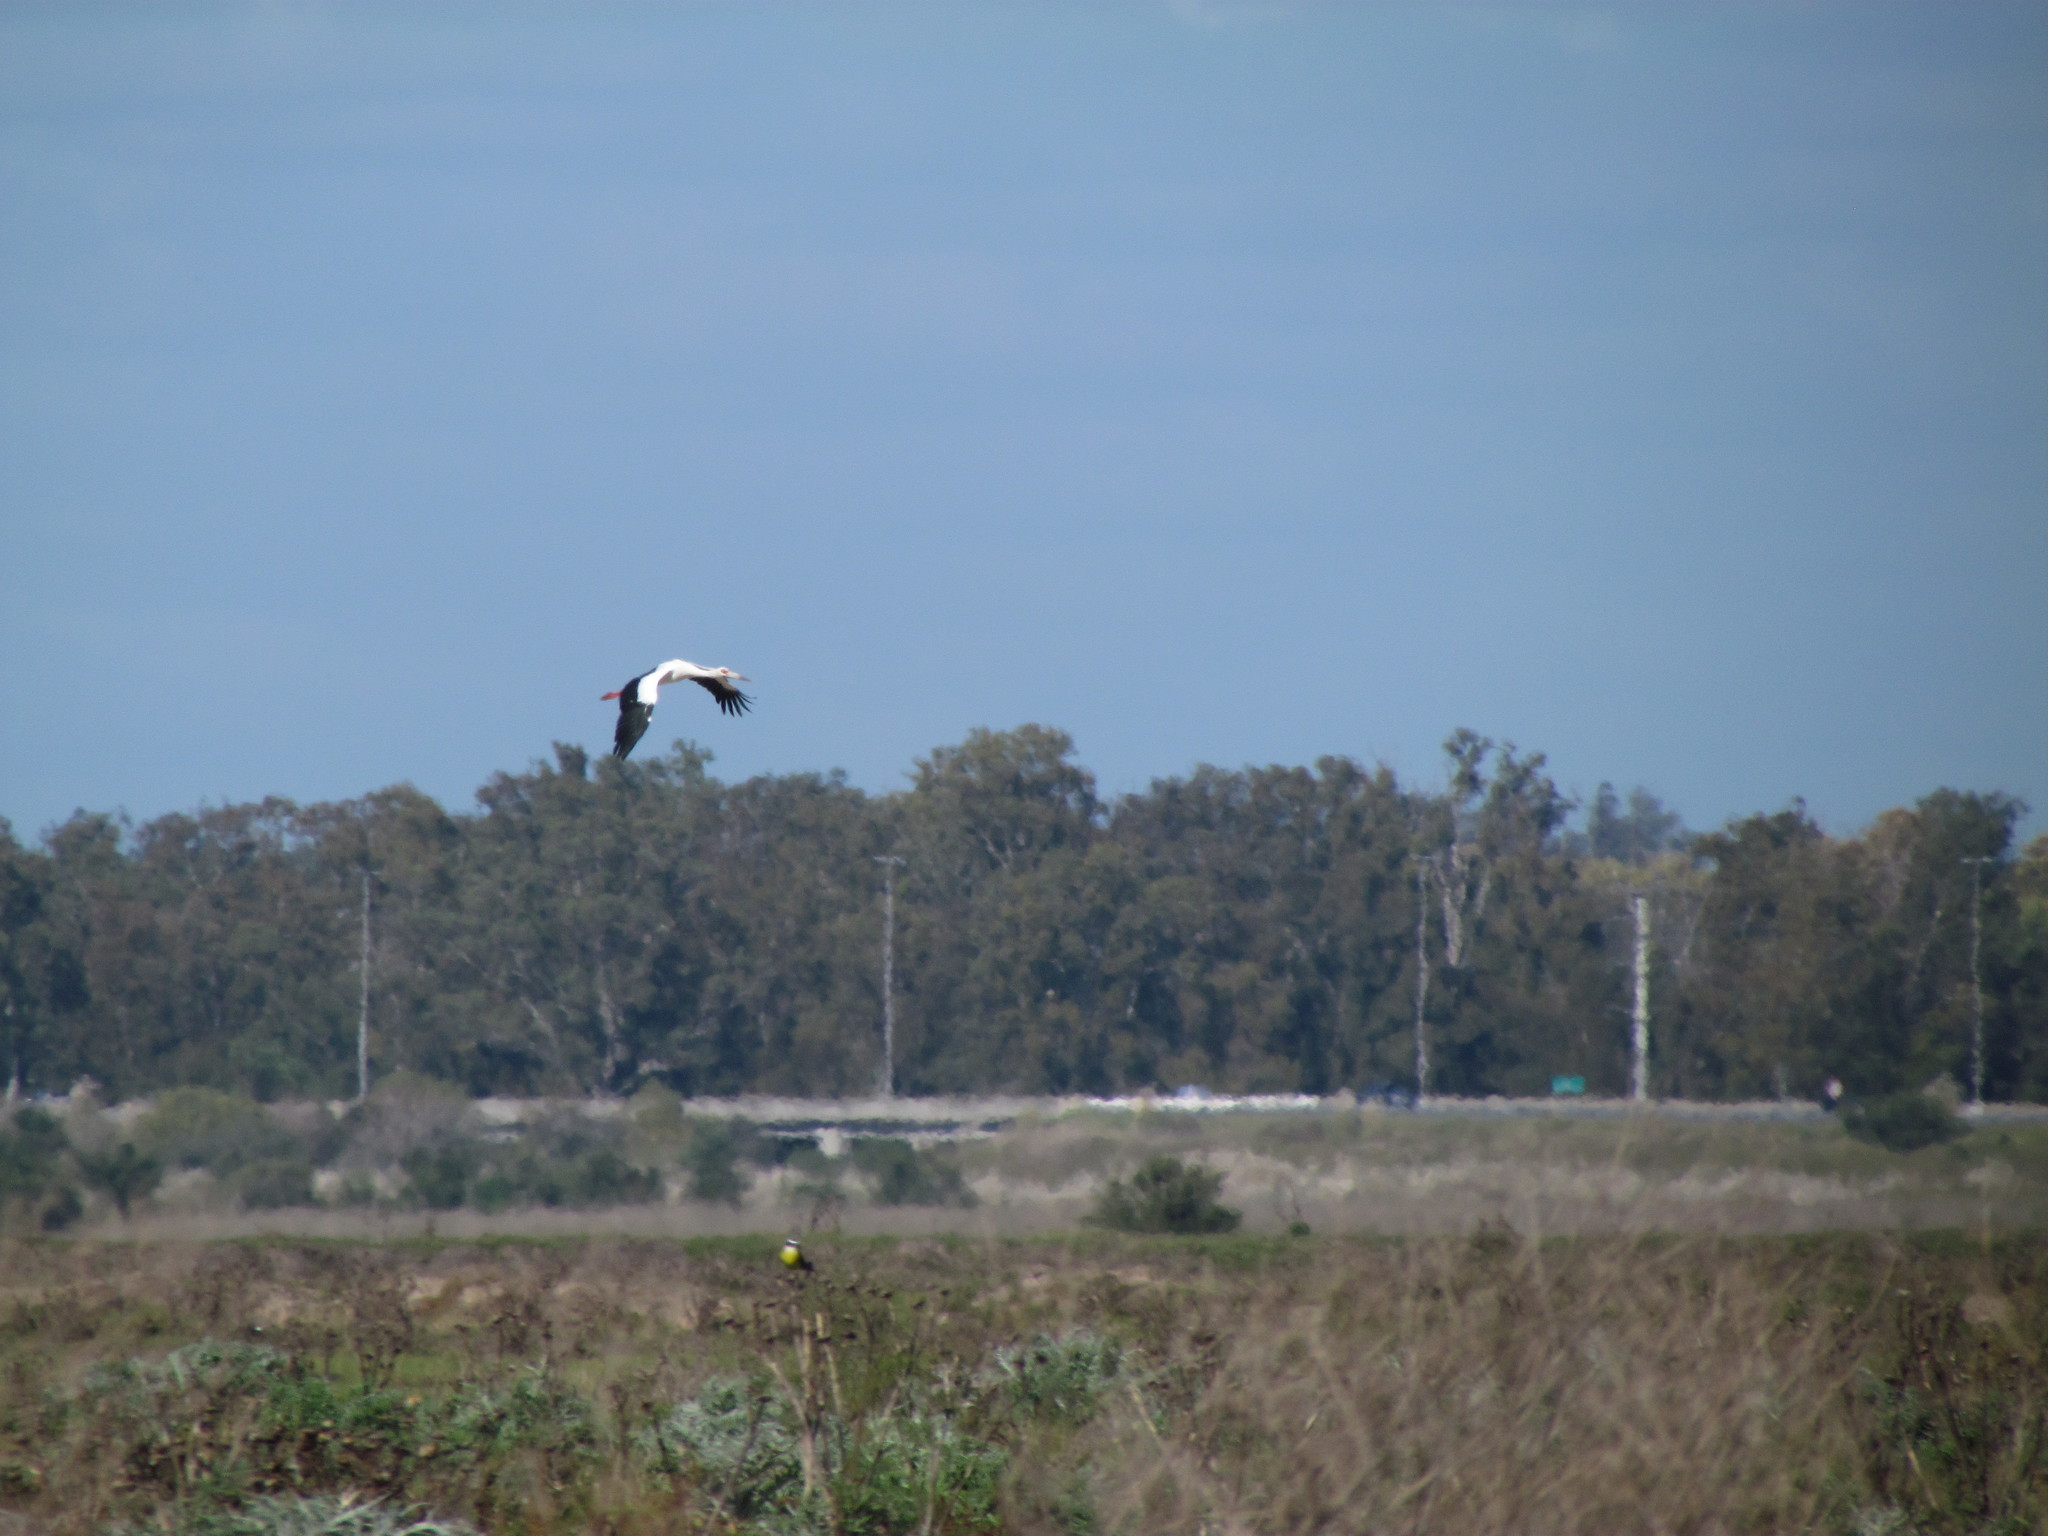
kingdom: Animalia
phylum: Chordata
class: Aves
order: Ciconiiformes
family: Ciconiidae
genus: Ciconia
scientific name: Ciconia maguari
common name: Maguari stork
